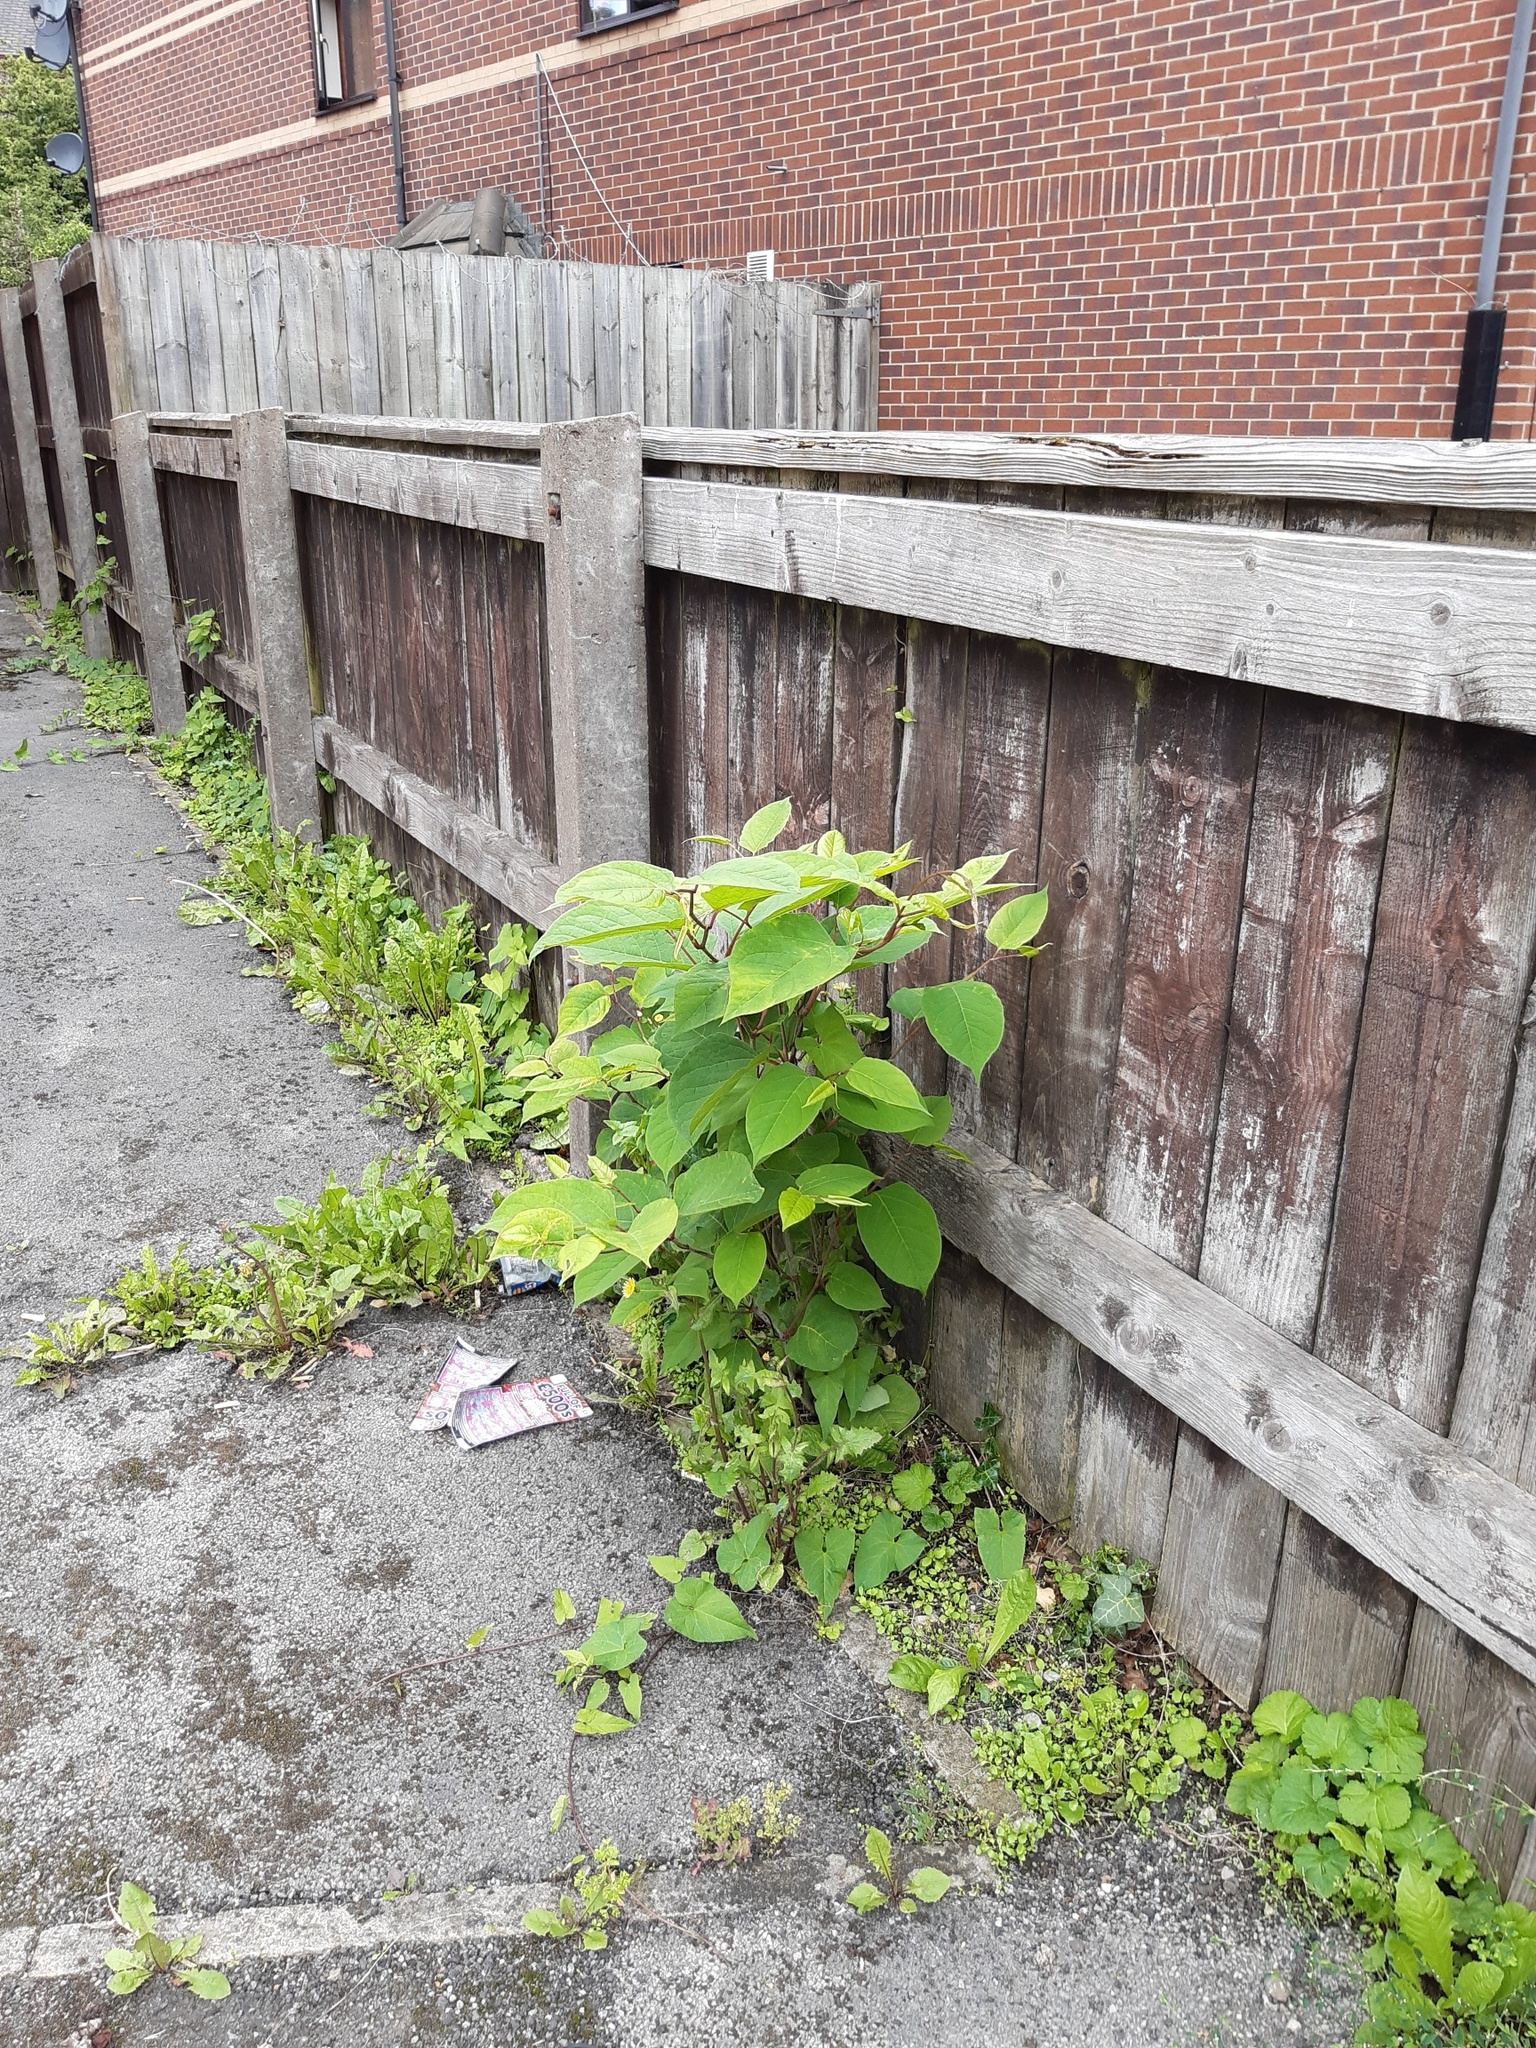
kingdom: Plantae
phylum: Tracheophyta
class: Magnoliopsida
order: Caryophyllales
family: Polygonaceae
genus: Reynoutria
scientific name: Reynoutria japonica
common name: Japanese knotweed
